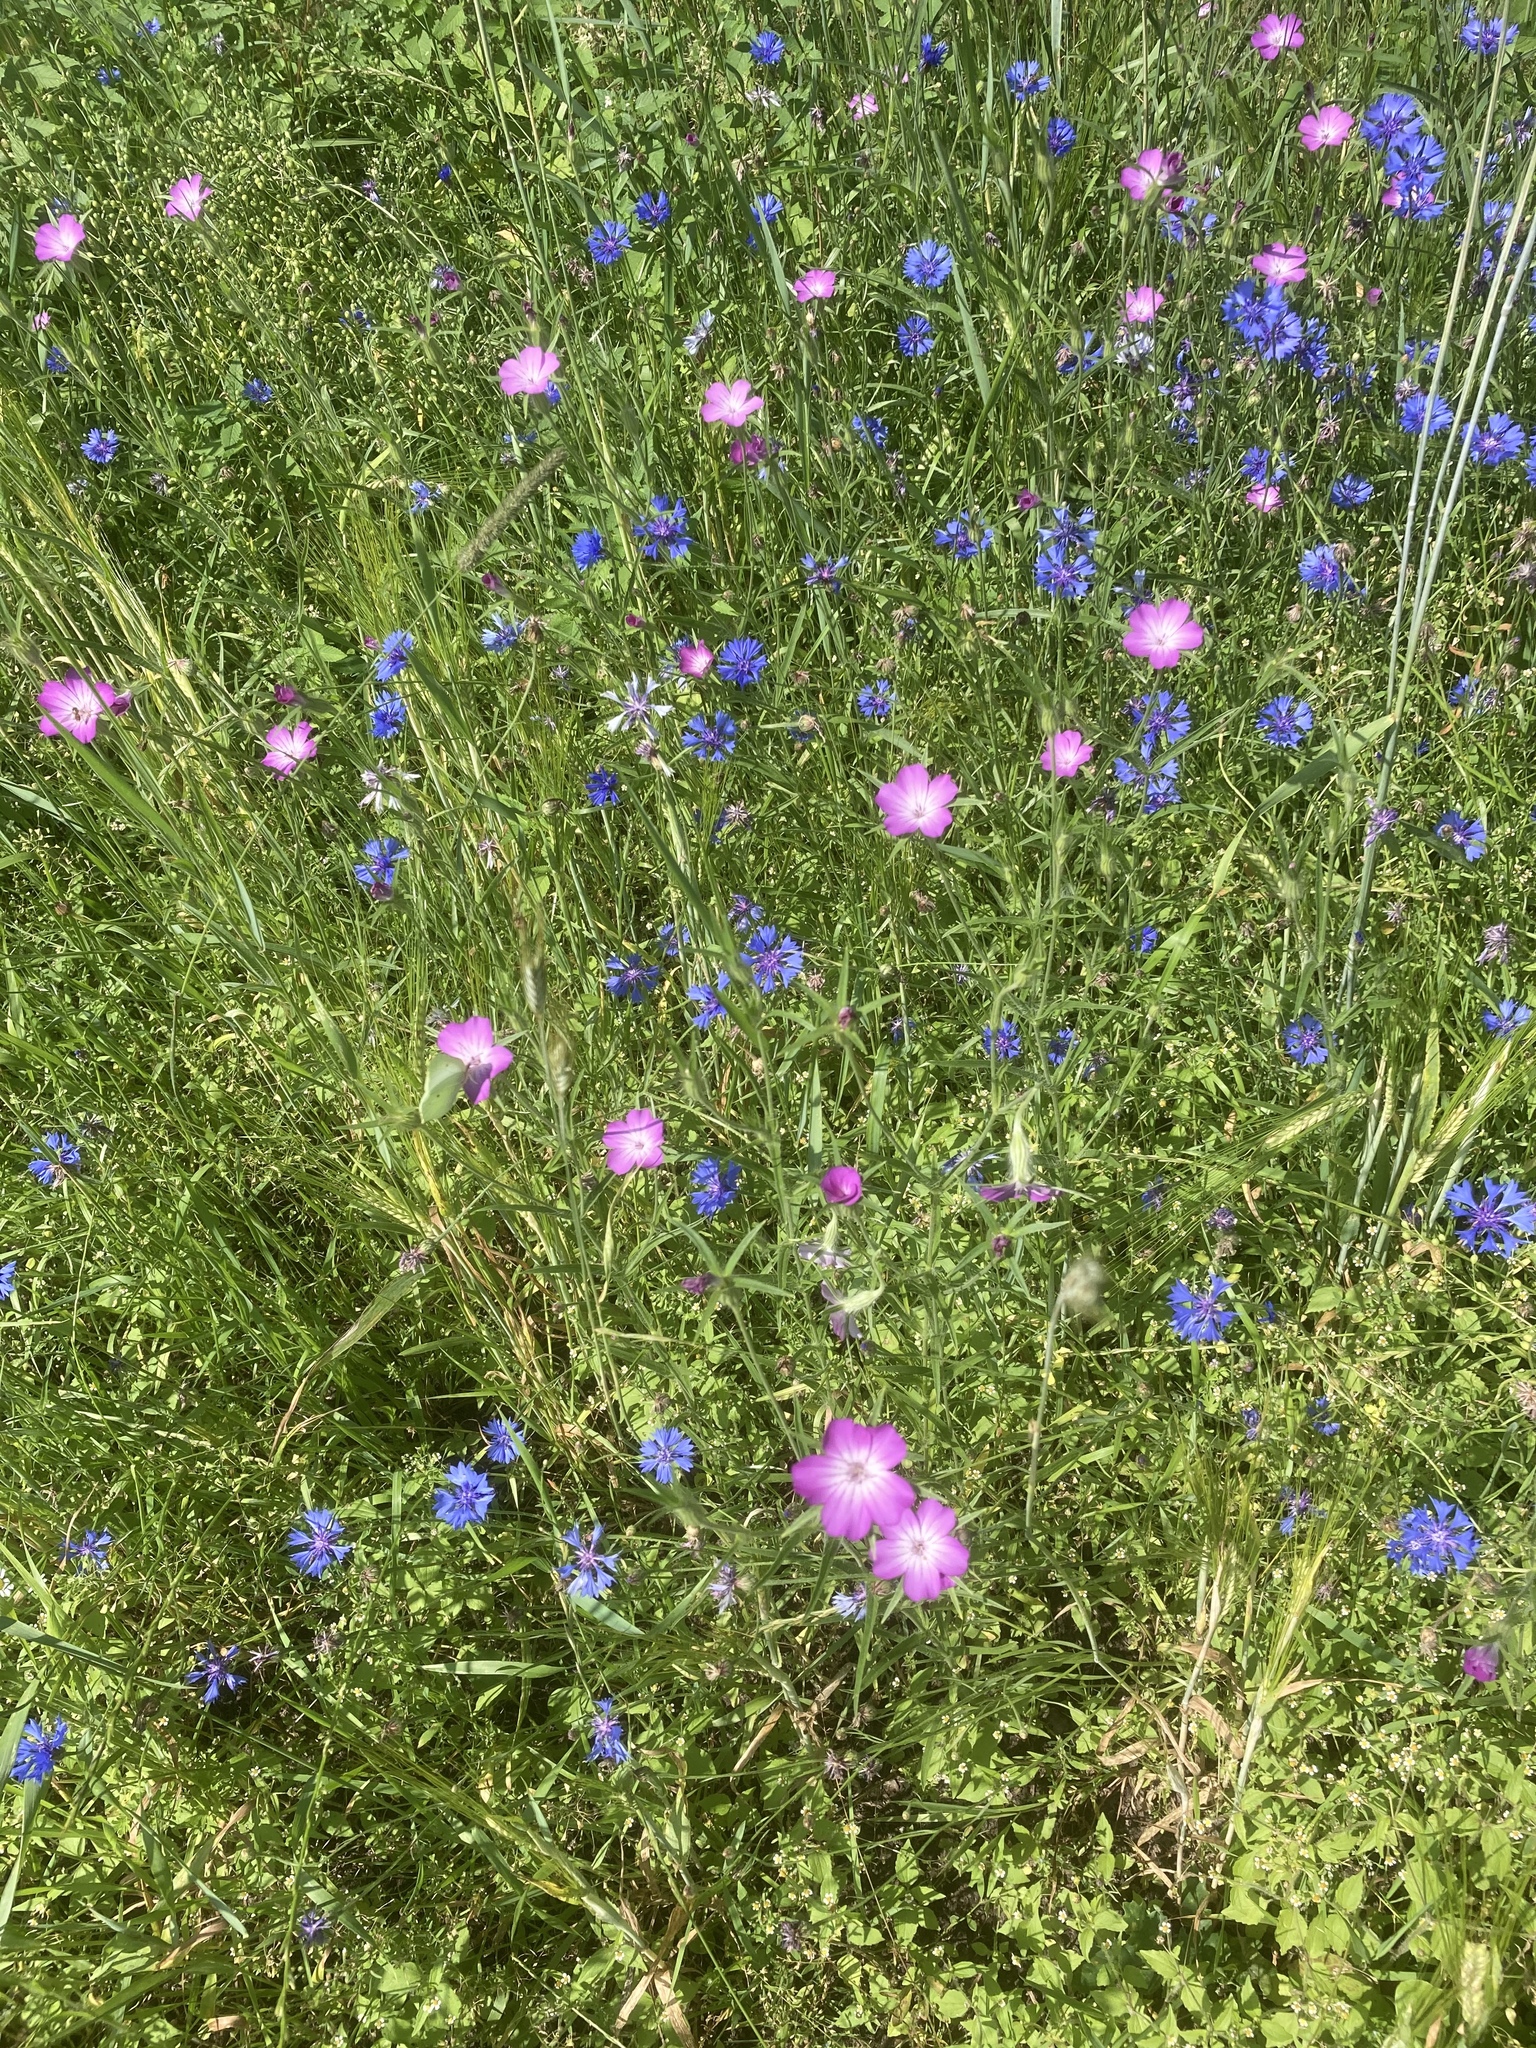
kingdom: Plantae
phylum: Tracheophyta
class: Magnoliopsida
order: Caryophyllales
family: Caryophyllaceae
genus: Agrostemma
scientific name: Agrostemma githago
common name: Common corncockle
